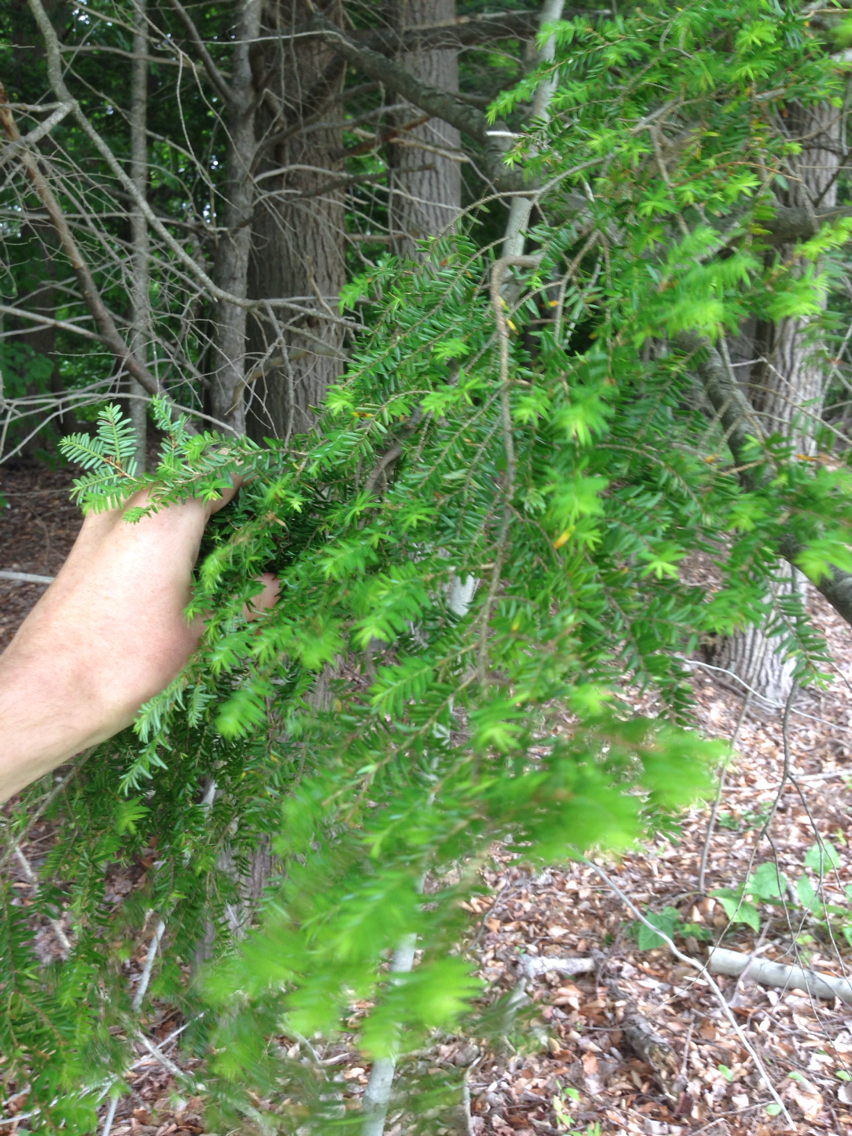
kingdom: Plantae
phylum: Tracheophyta
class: Pinopsida
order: Pinales
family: Pinaceae
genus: Tsuga
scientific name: Tsuga canadensis
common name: Eastern hemlock
